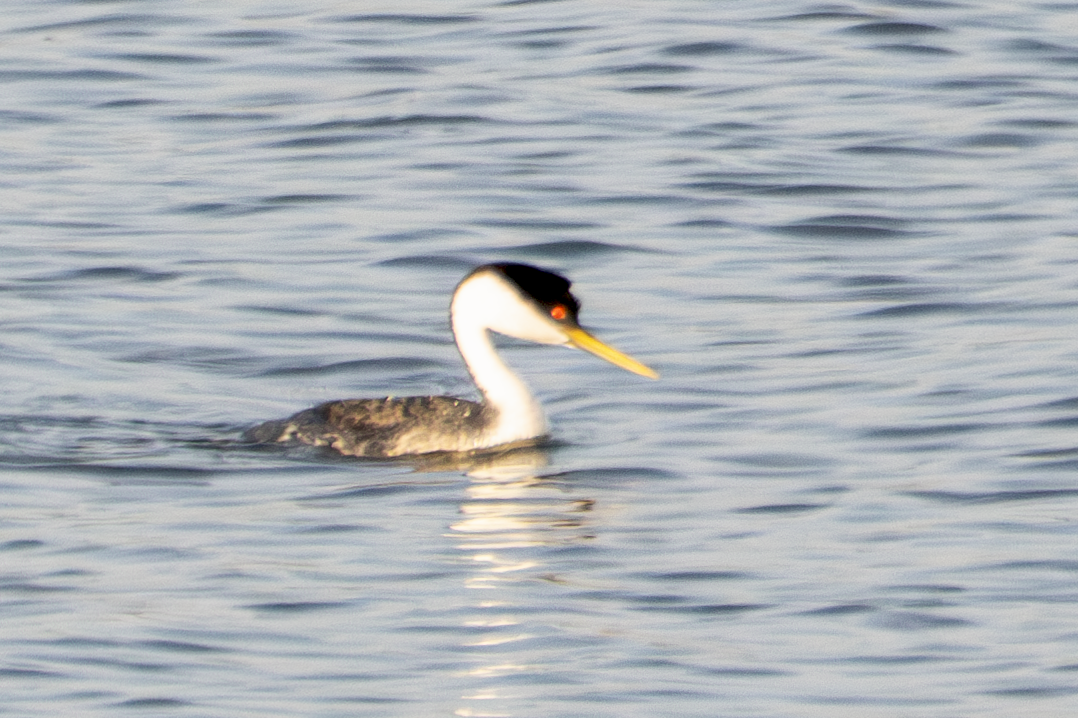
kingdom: Animalia
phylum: Chordata
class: Aves
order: Podicipediformes
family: Podicipedidae
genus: Aechmophorus
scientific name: Aechmophorus occidentalis
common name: Western grebe
